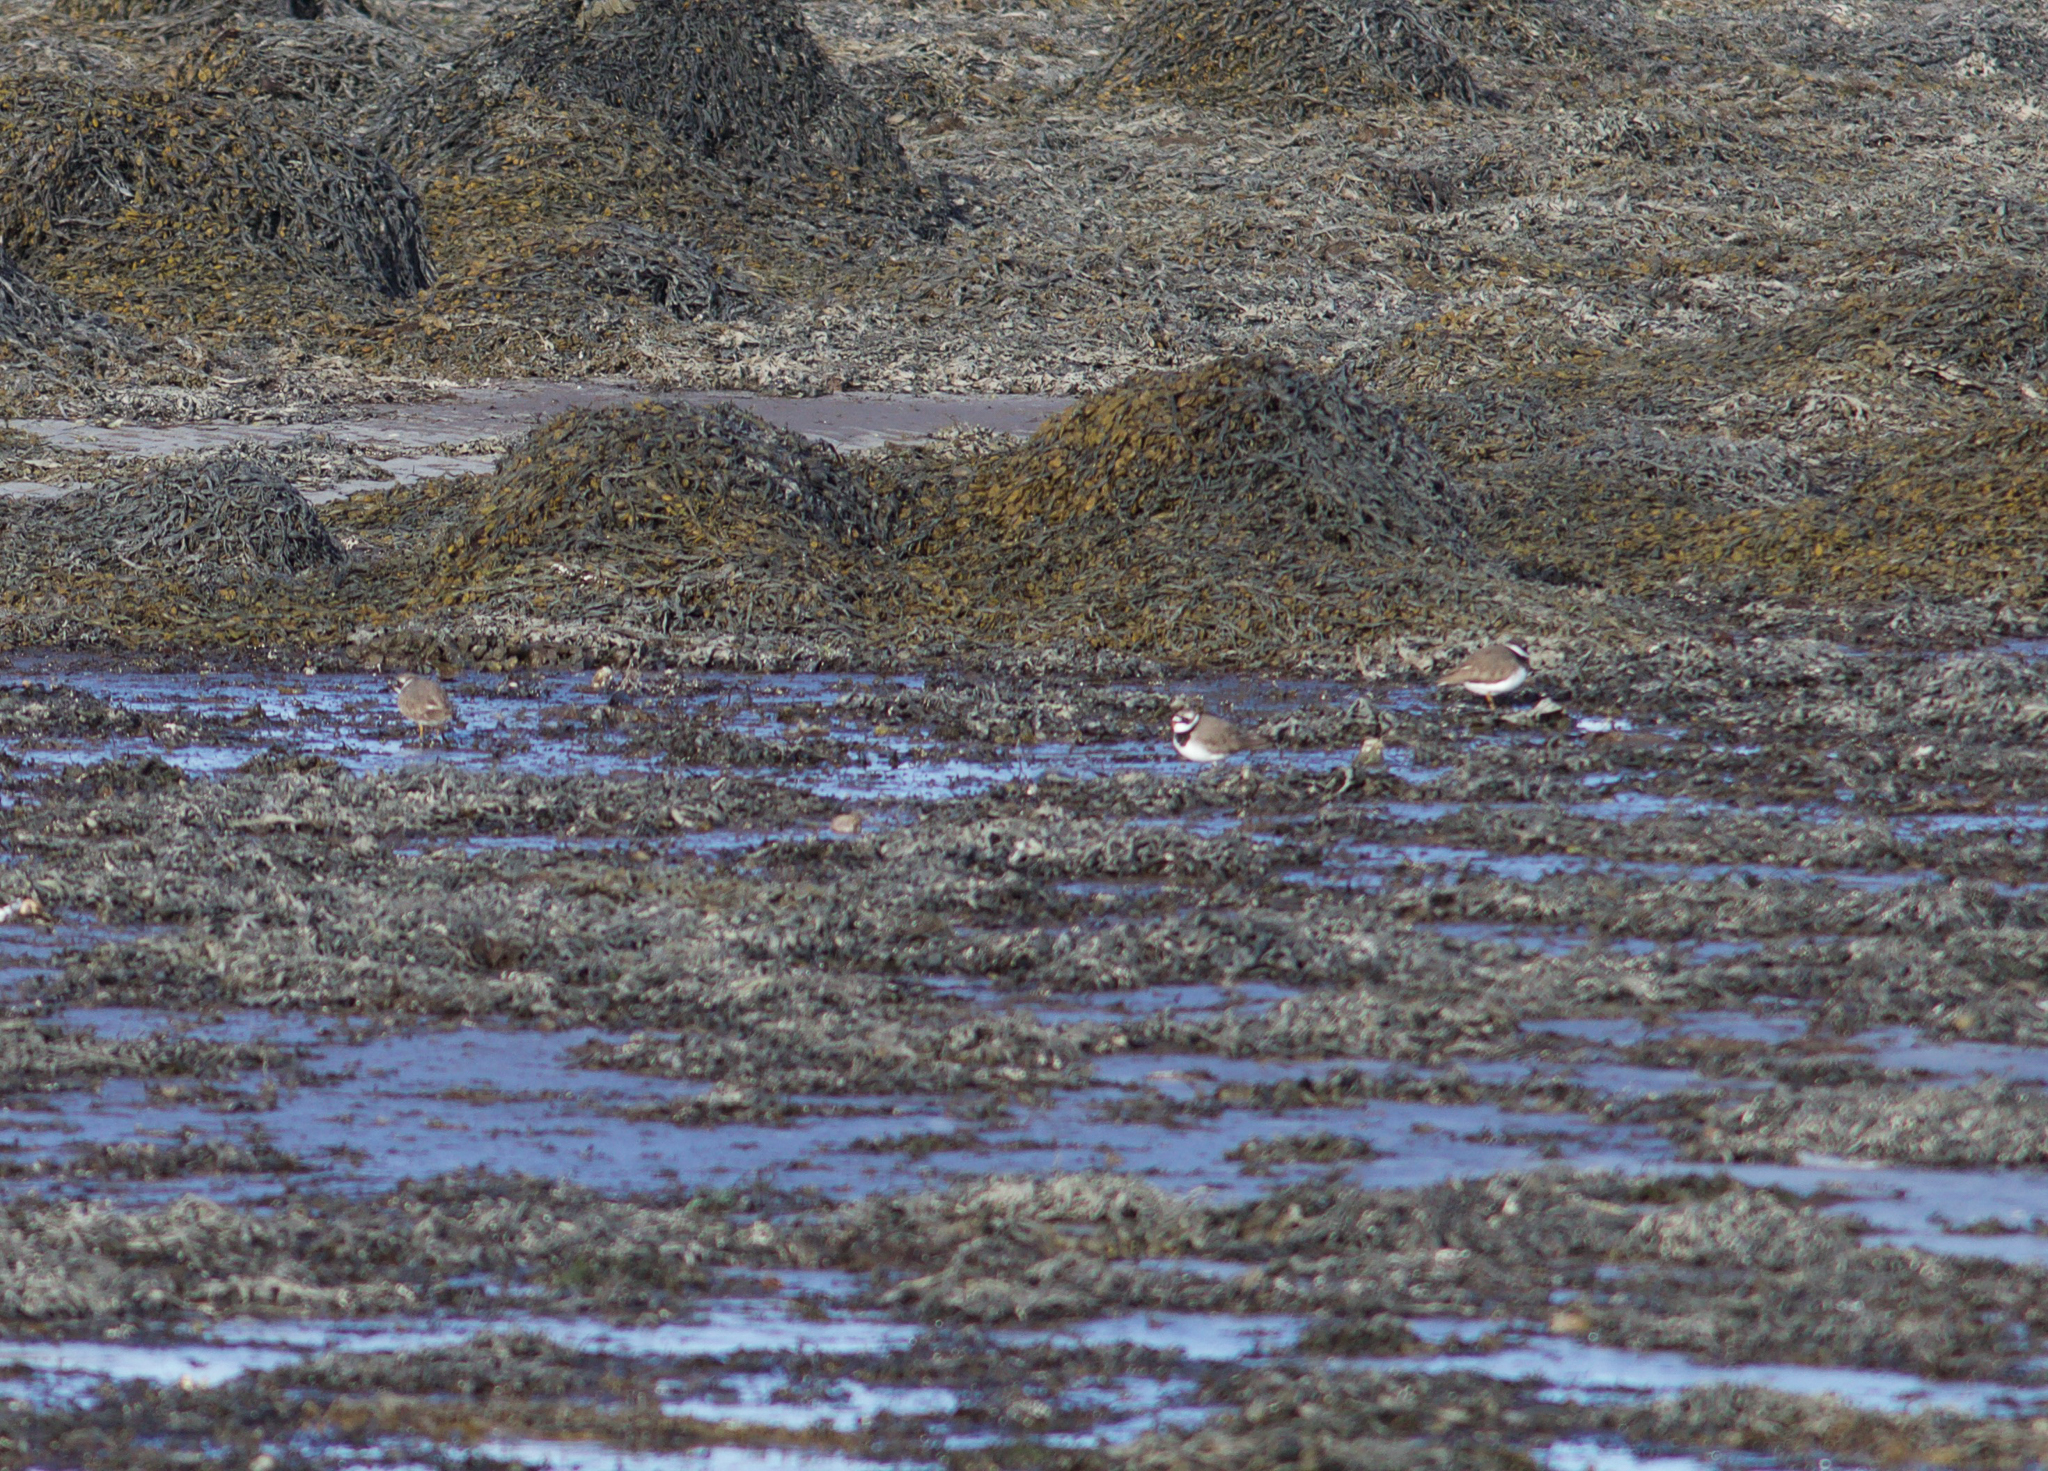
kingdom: Animalia
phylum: Chordata
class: Aves
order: Charadriiformes
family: Charadriidae
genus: Charadrius
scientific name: Charadrius hiaticula
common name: Common ringed plover
